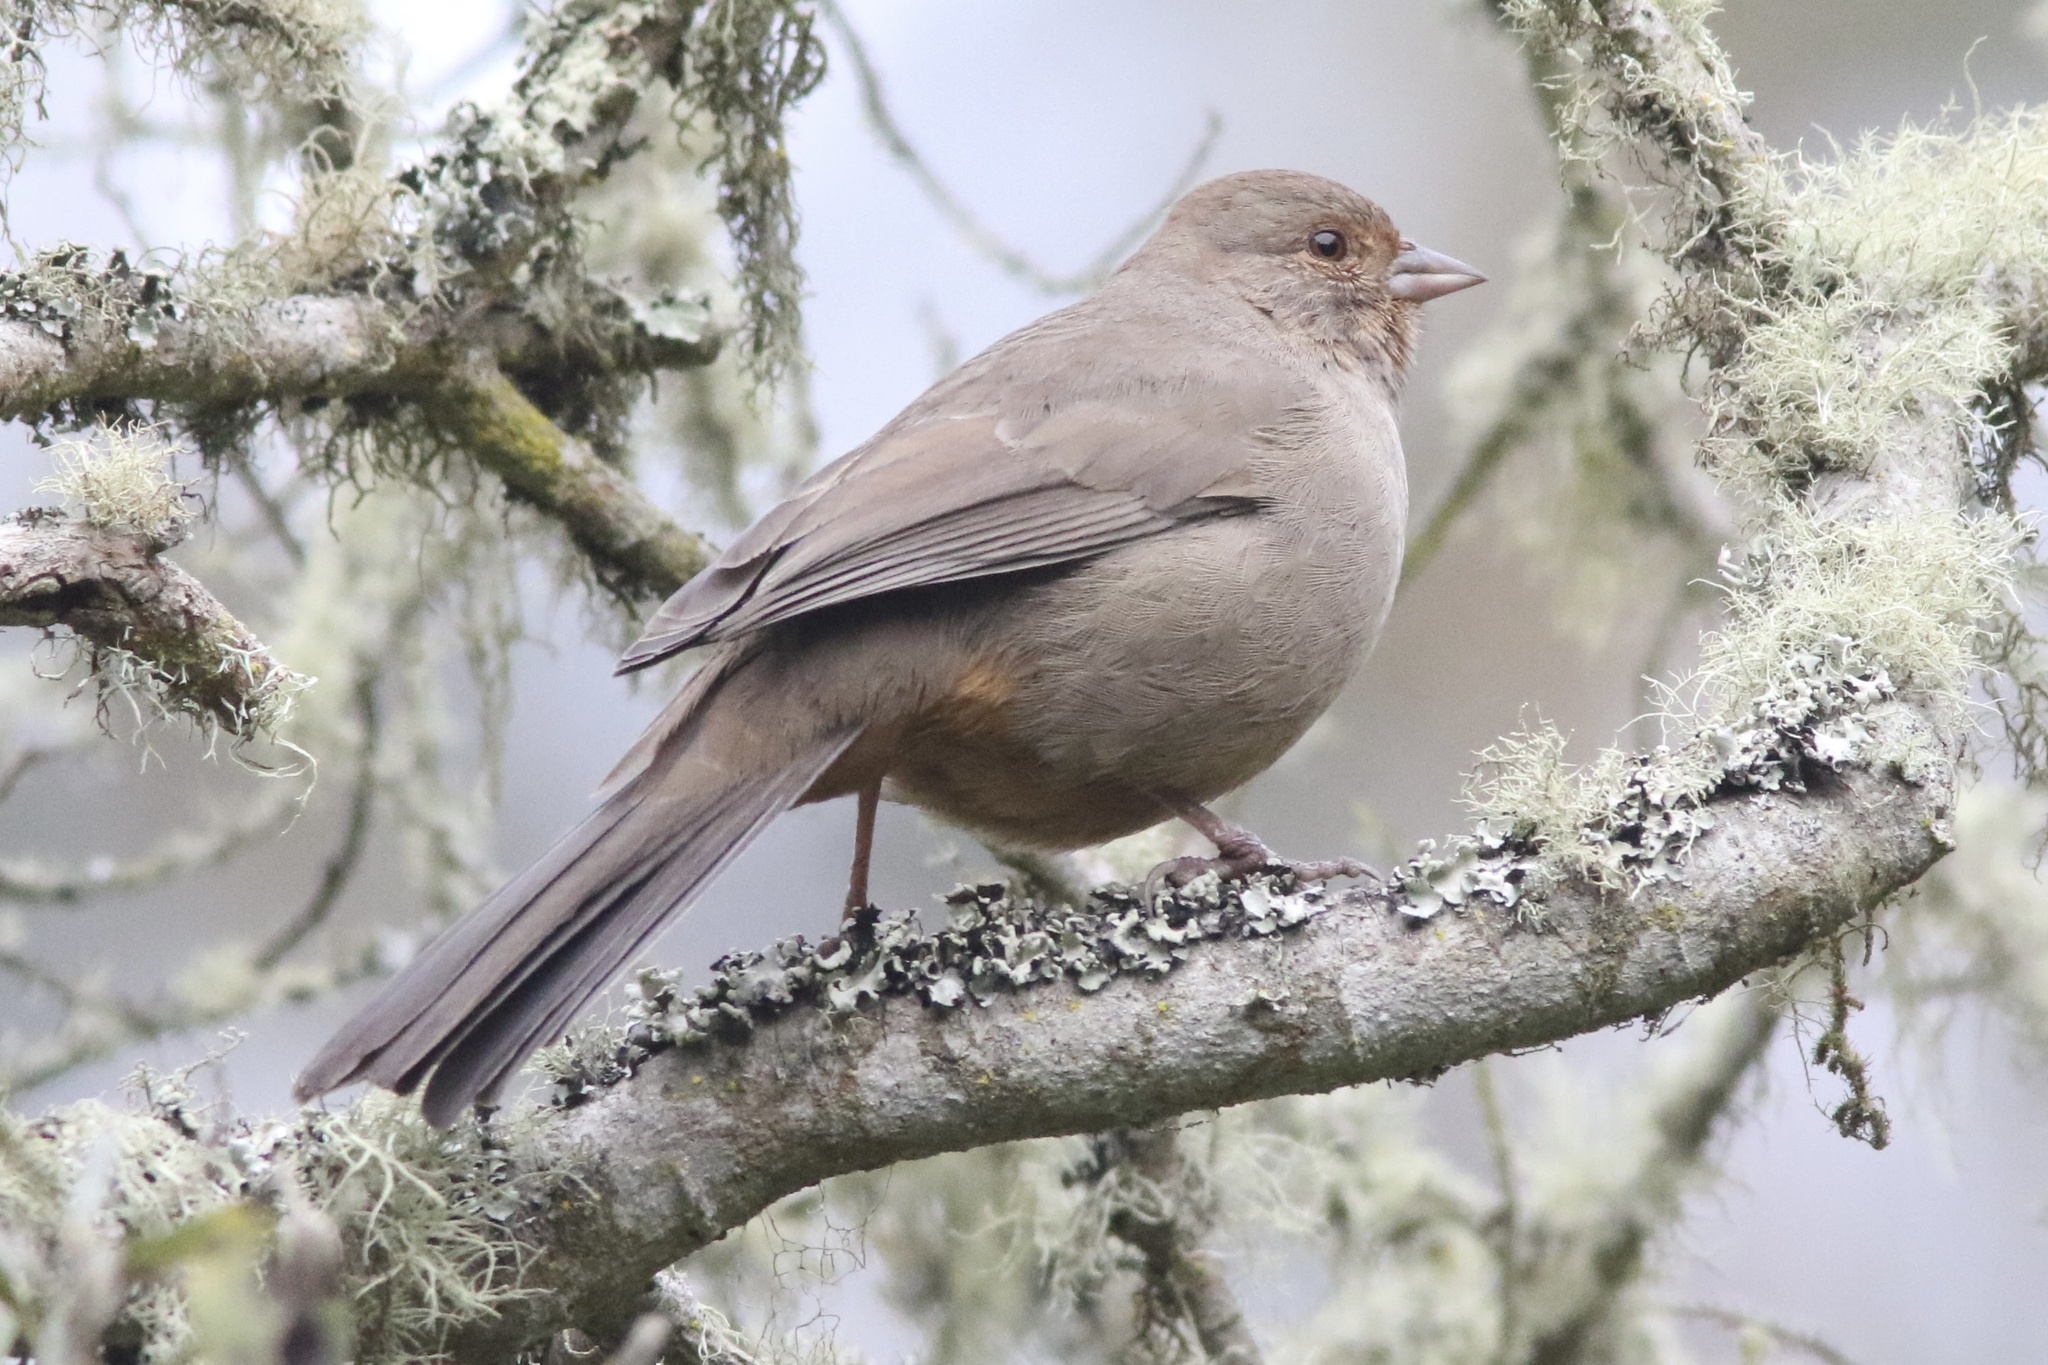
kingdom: Animalia
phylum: Chordata
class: Aves
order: Passeriformes
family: Passerellidae
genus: Melozone
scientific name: Melozone crissalis
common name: California towhee
